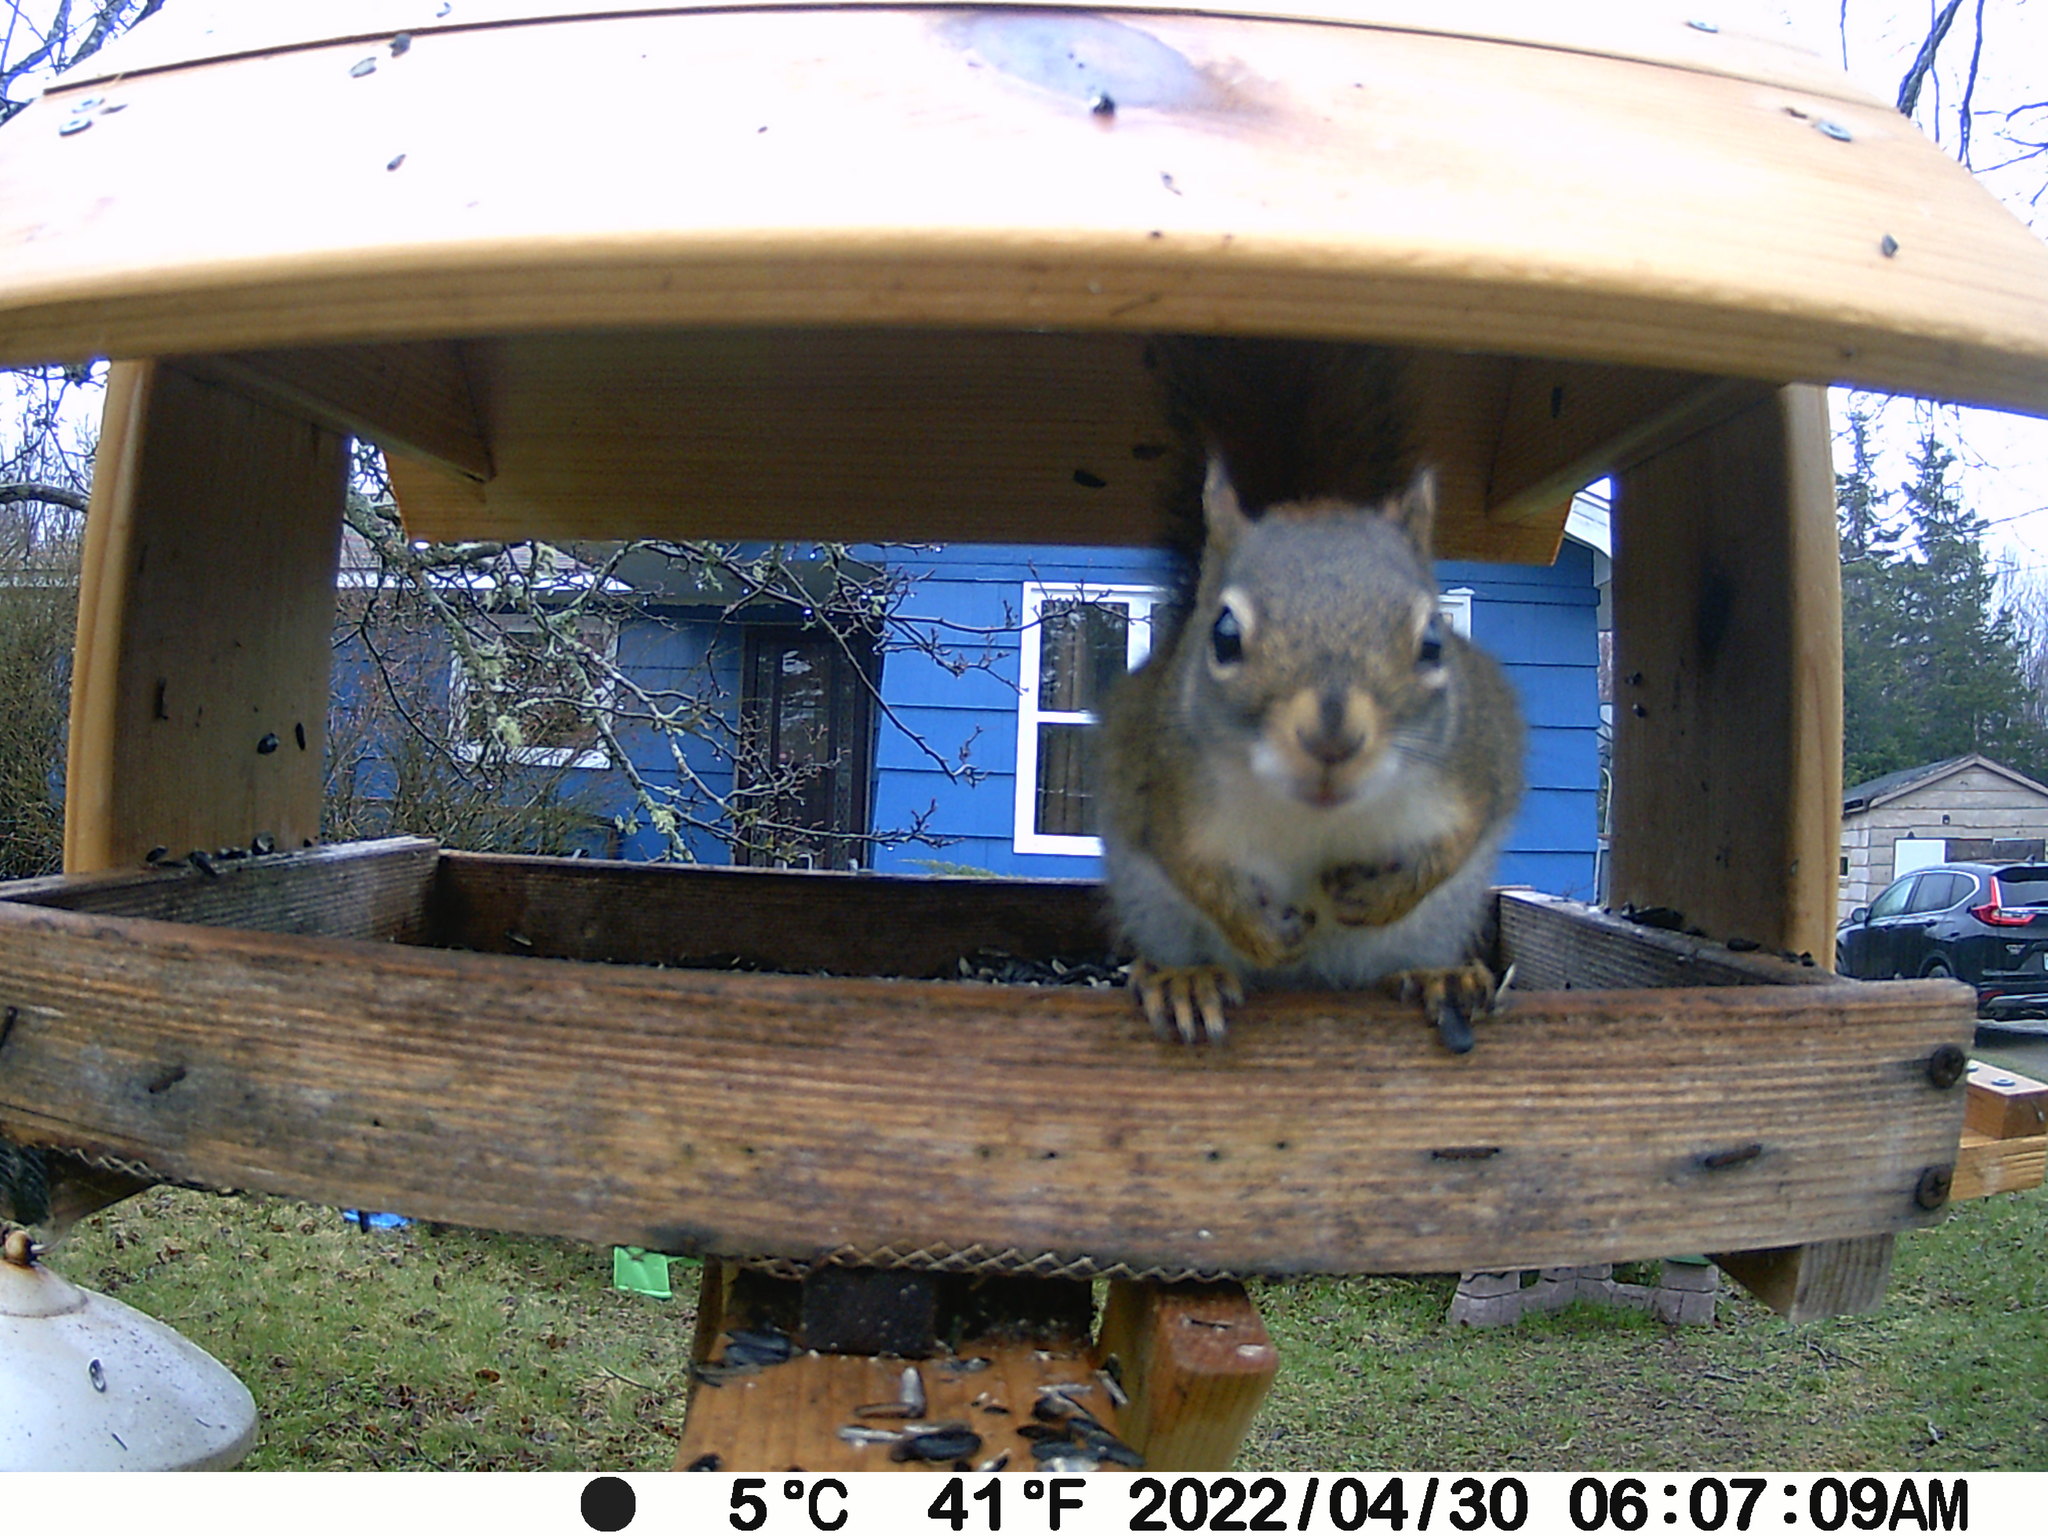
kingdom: Animalia
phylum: Chordata
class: Mammalia
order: Rodentia
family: Sciuridae
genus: Tamiasciurus
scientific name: Tamiasciurus hudsonicus
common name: Red squirrel
